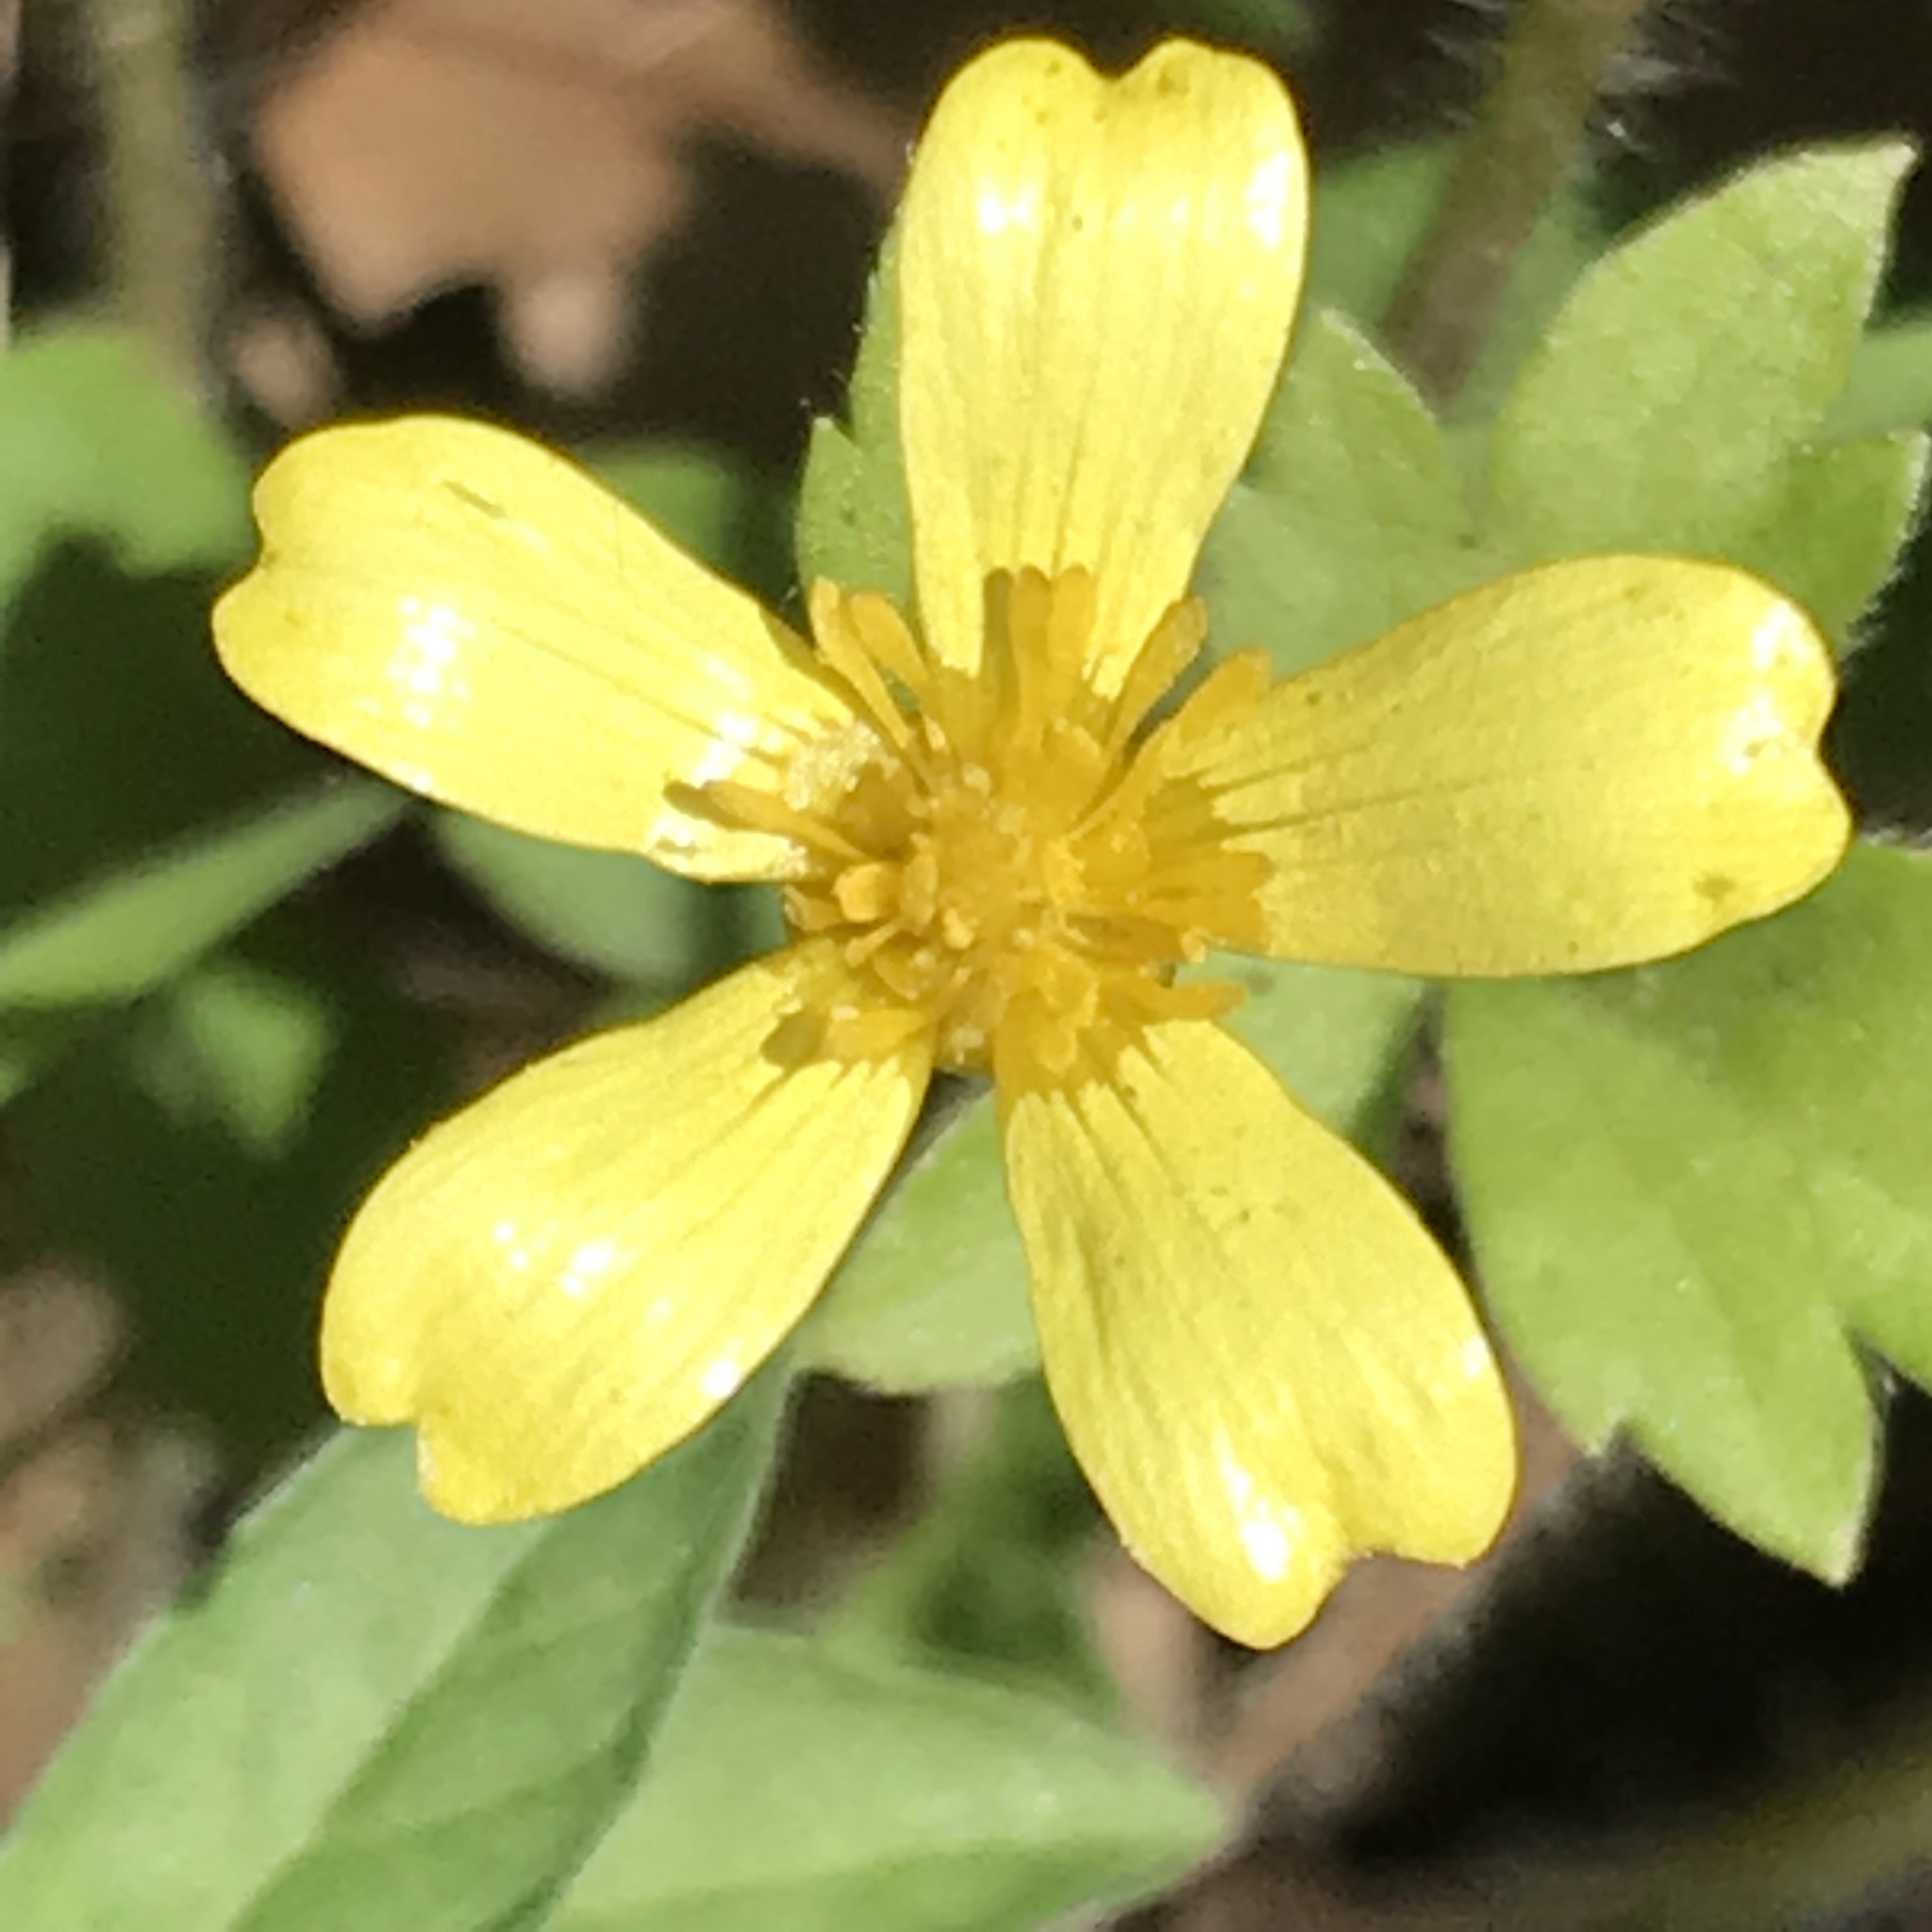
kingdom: Plantae
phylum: Tracheophyta
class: Magnoliopsida
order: Ranunculales
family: Ranunculaceae
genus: Ranunculus
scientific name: Ranunculus sierrae-orientalis
